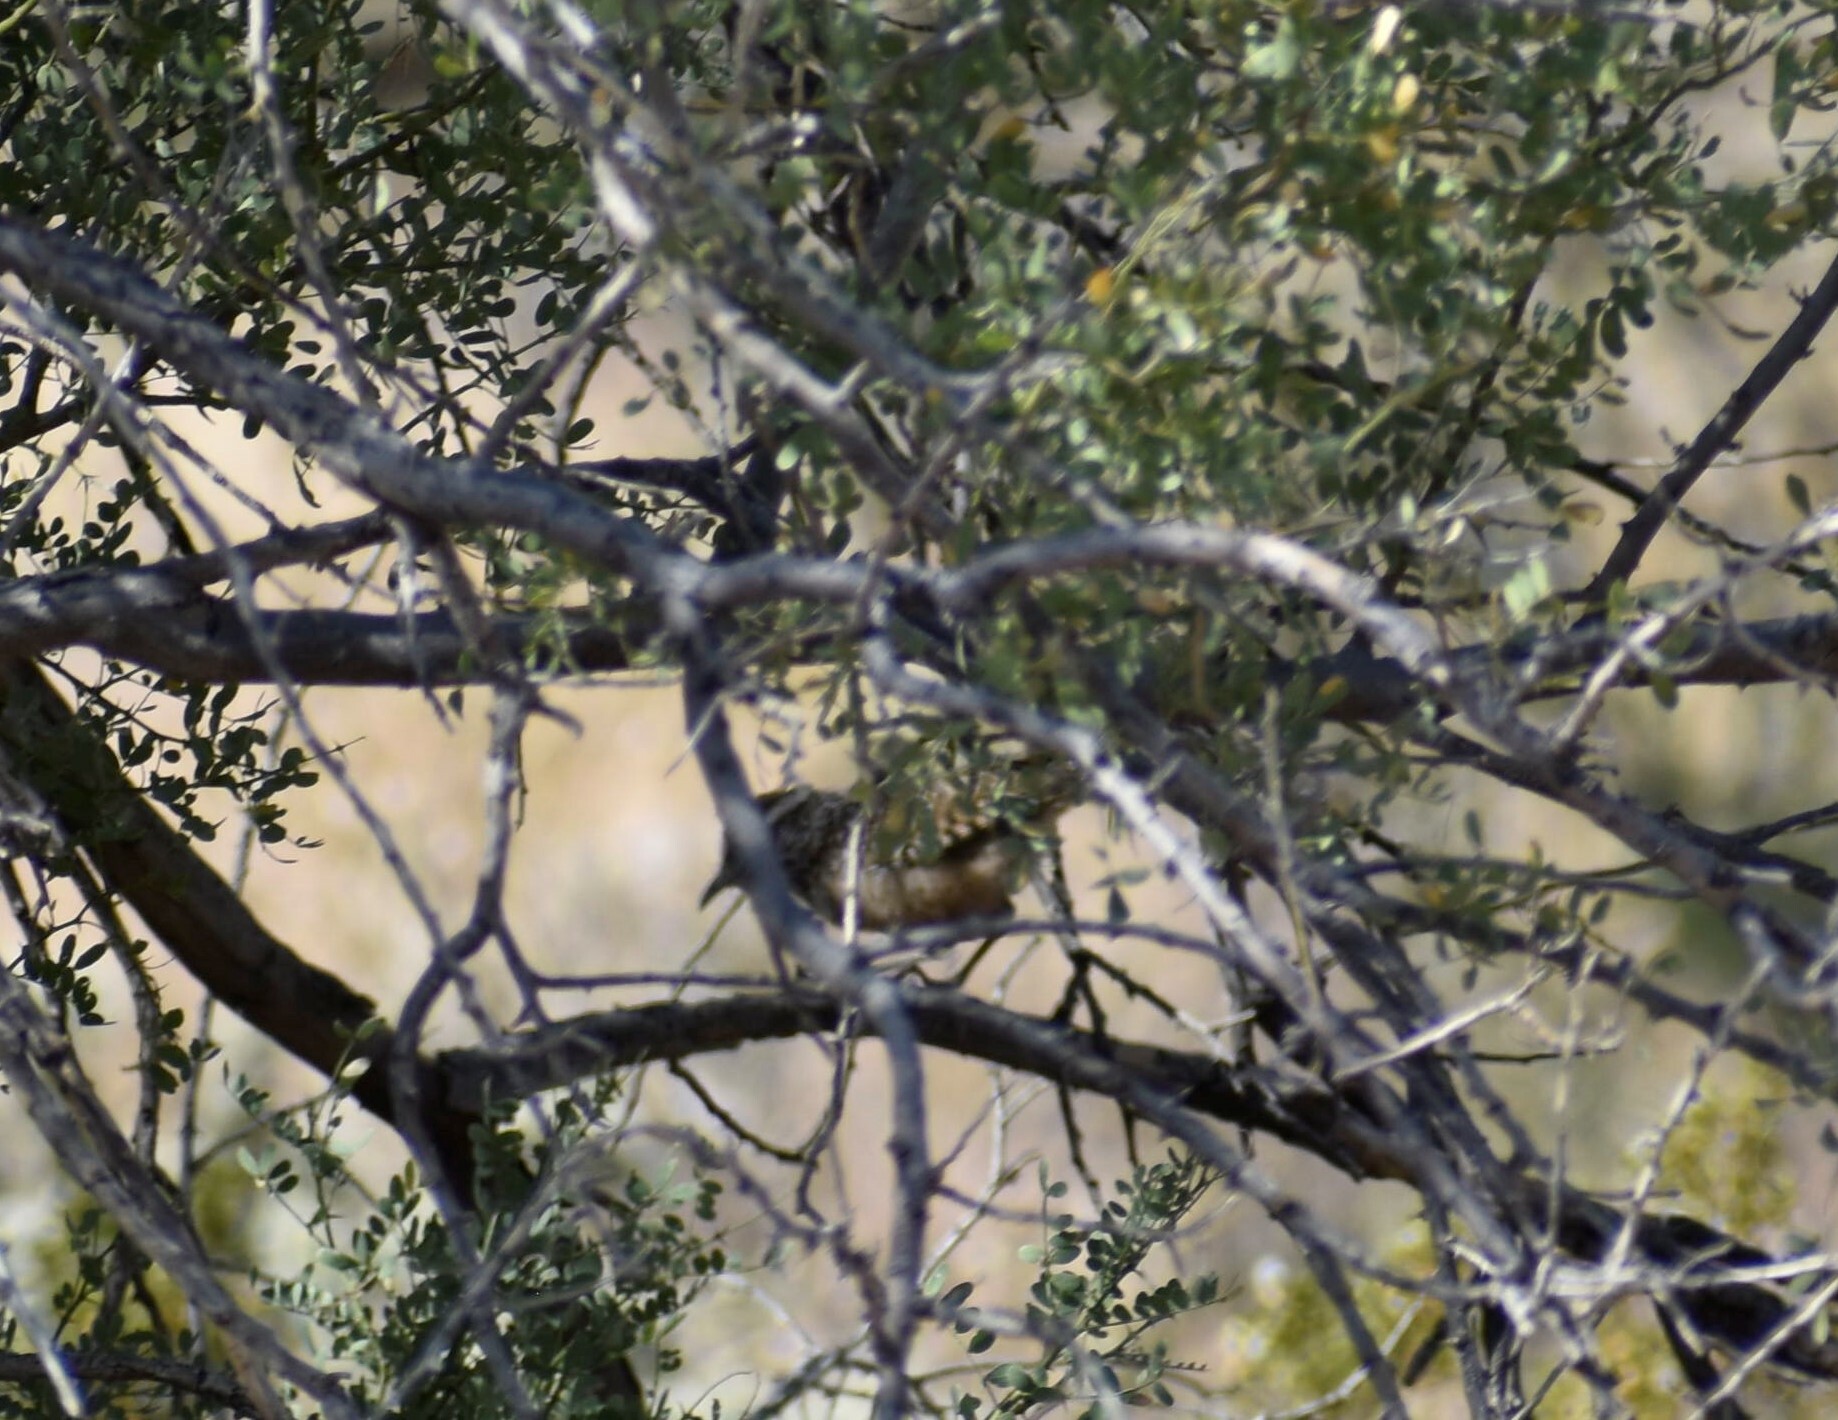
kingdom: Animalia
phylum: Chordata
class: Aves
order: Passeriformes
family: Troglodytidae
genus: Campylorhynchus
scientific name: Campylorhynchus brunneicapillus
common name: Cactus wren
